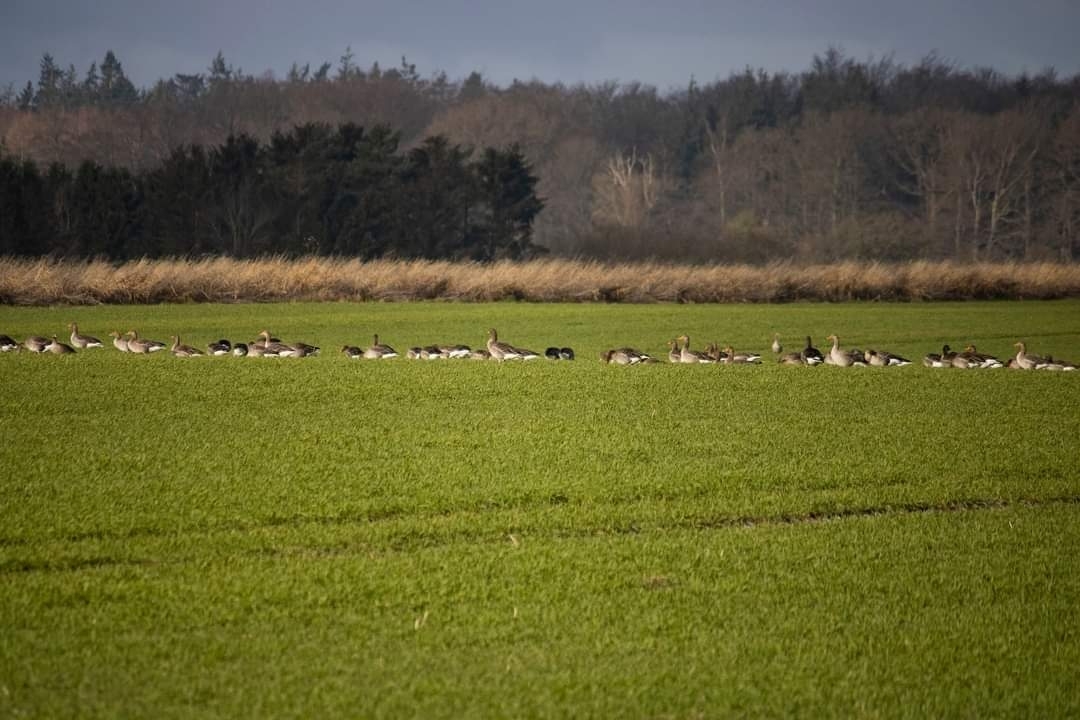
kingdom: Animalia
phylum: Chordata
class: Aves
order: Anseriformes
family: Anatidae
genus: Anser
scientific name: Anser anser
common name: Greylag goose
